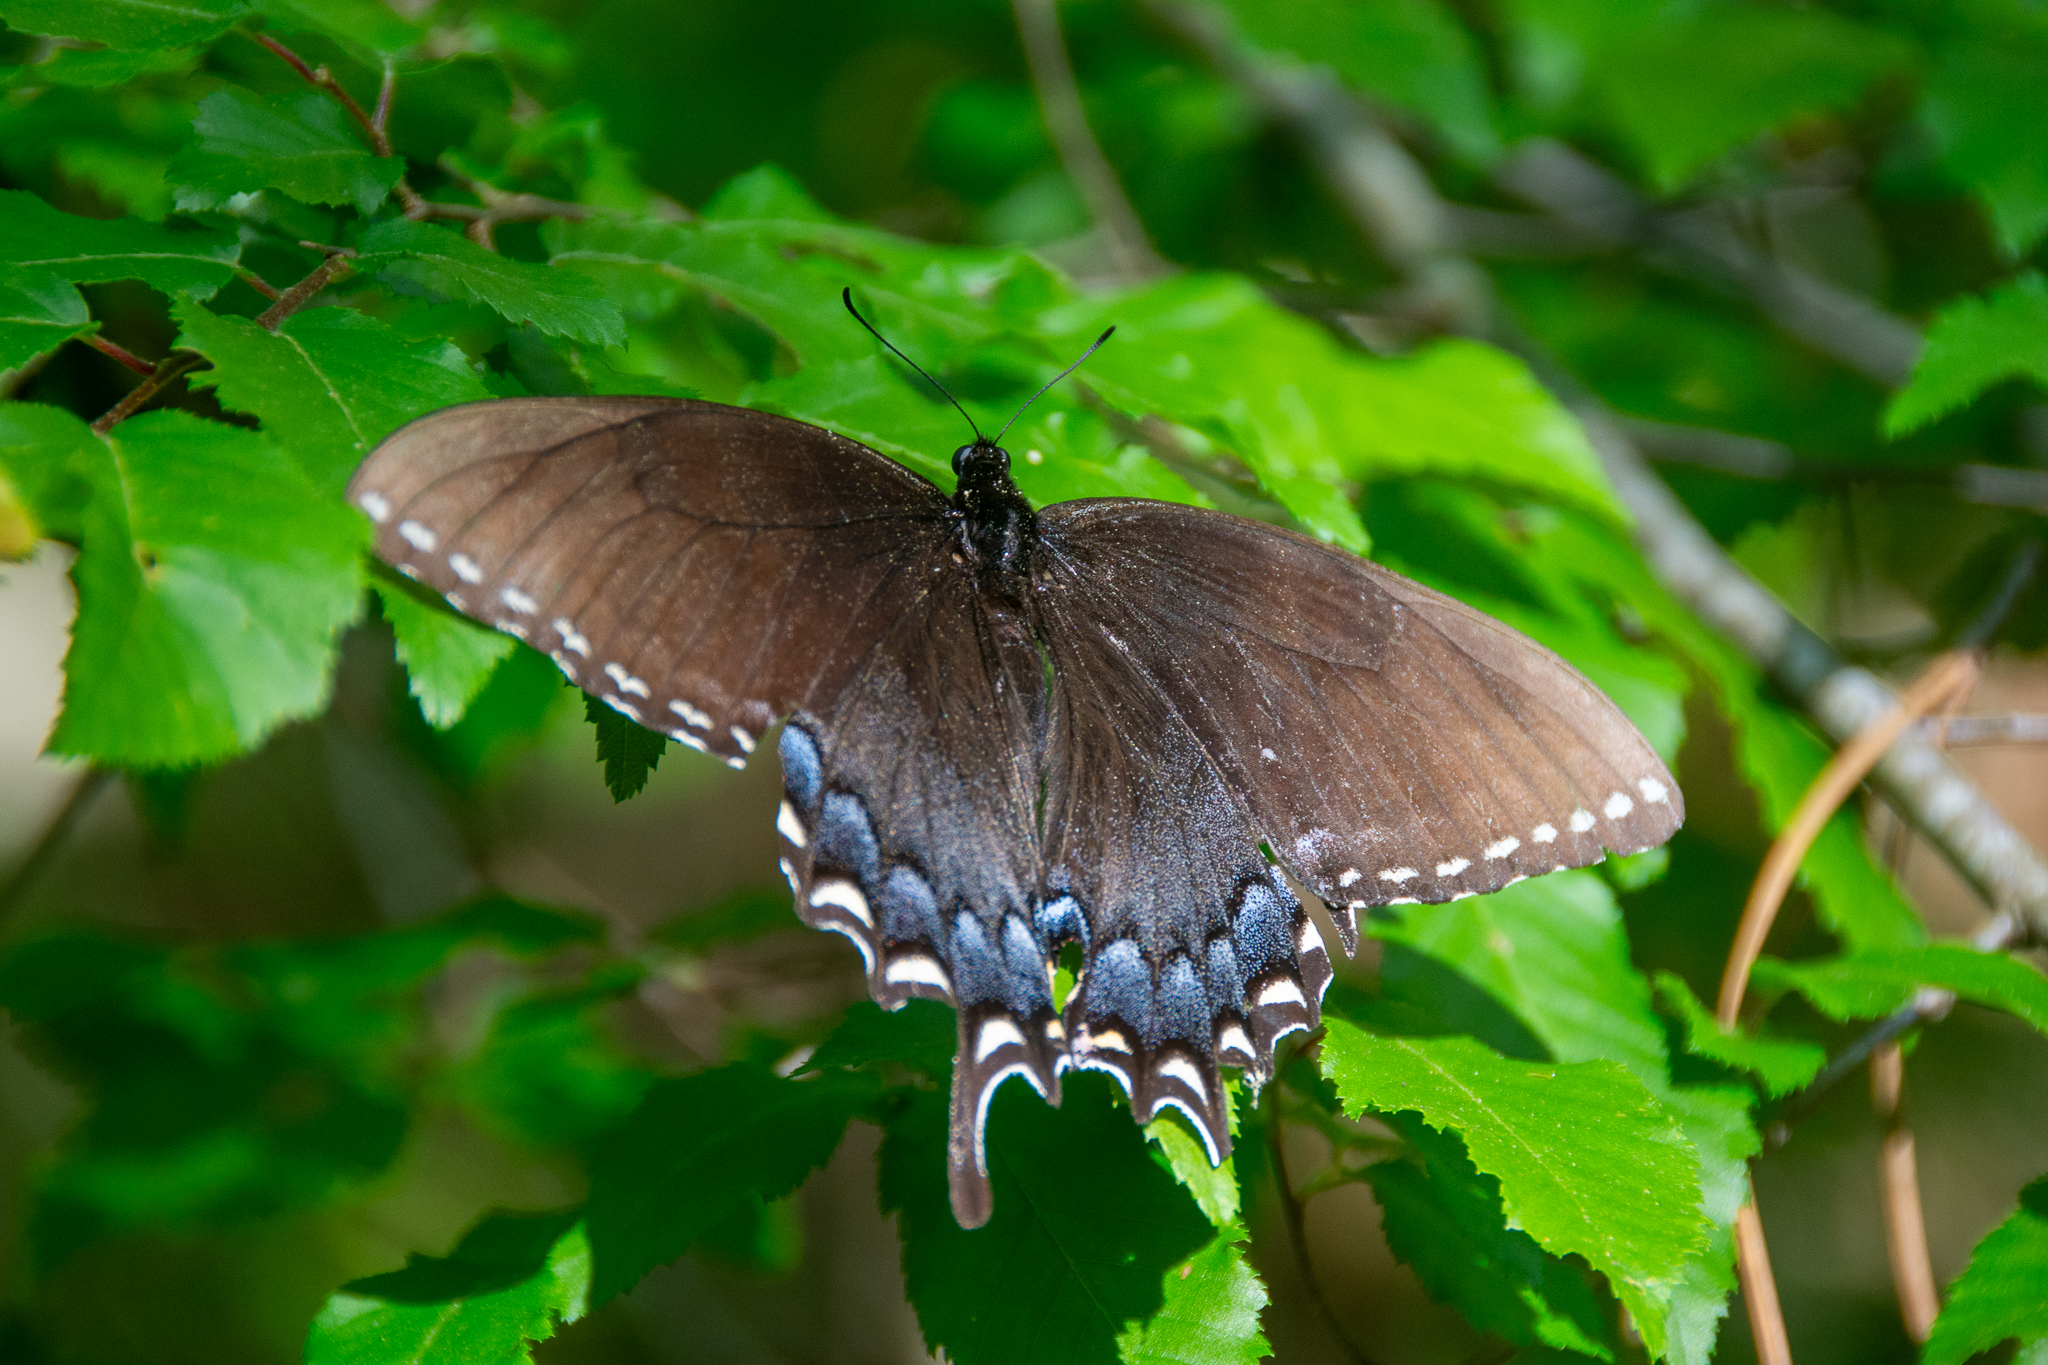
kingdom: Animalia
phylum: Arthropoda
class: Insecta
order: Lepidoptera
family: Papilionidae
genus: Papilio
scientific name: Papilio glaucus
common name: Tiger swallowtail
